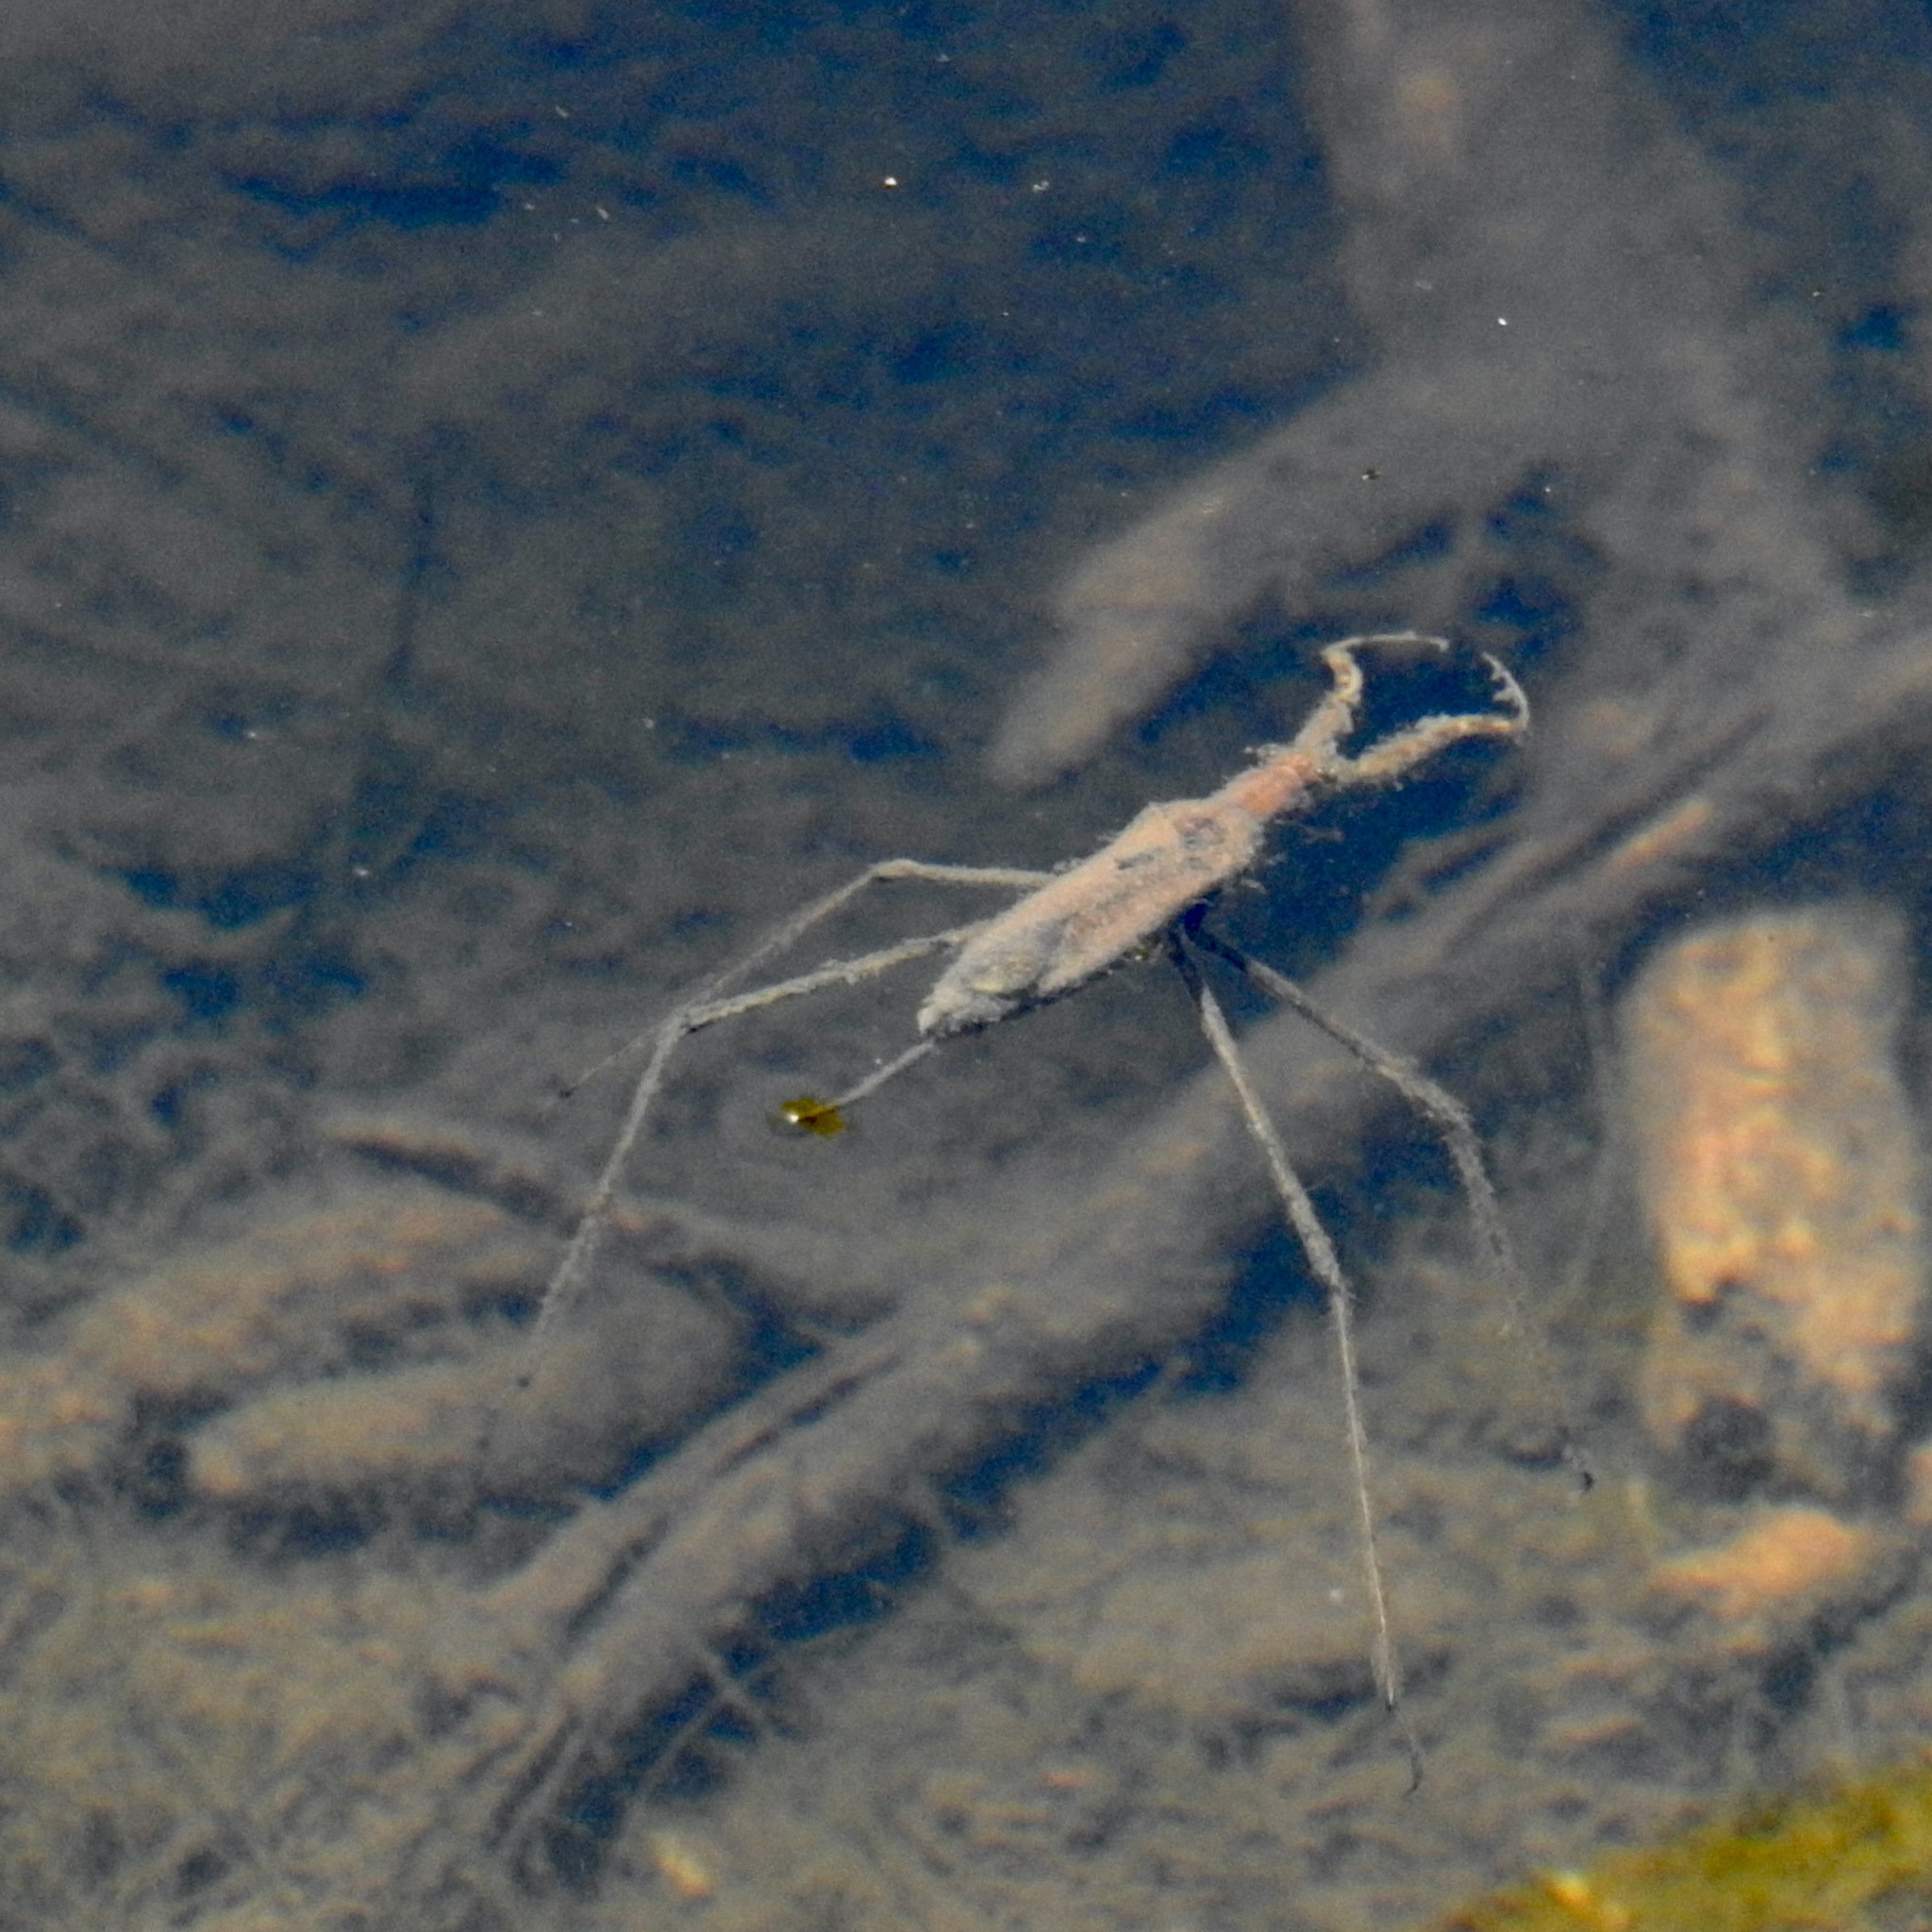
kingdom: Animalia
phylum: Arthropoda
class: Insecta
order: Hemiptera
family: Nepidae
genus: Ranatra
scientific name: Ranatra
